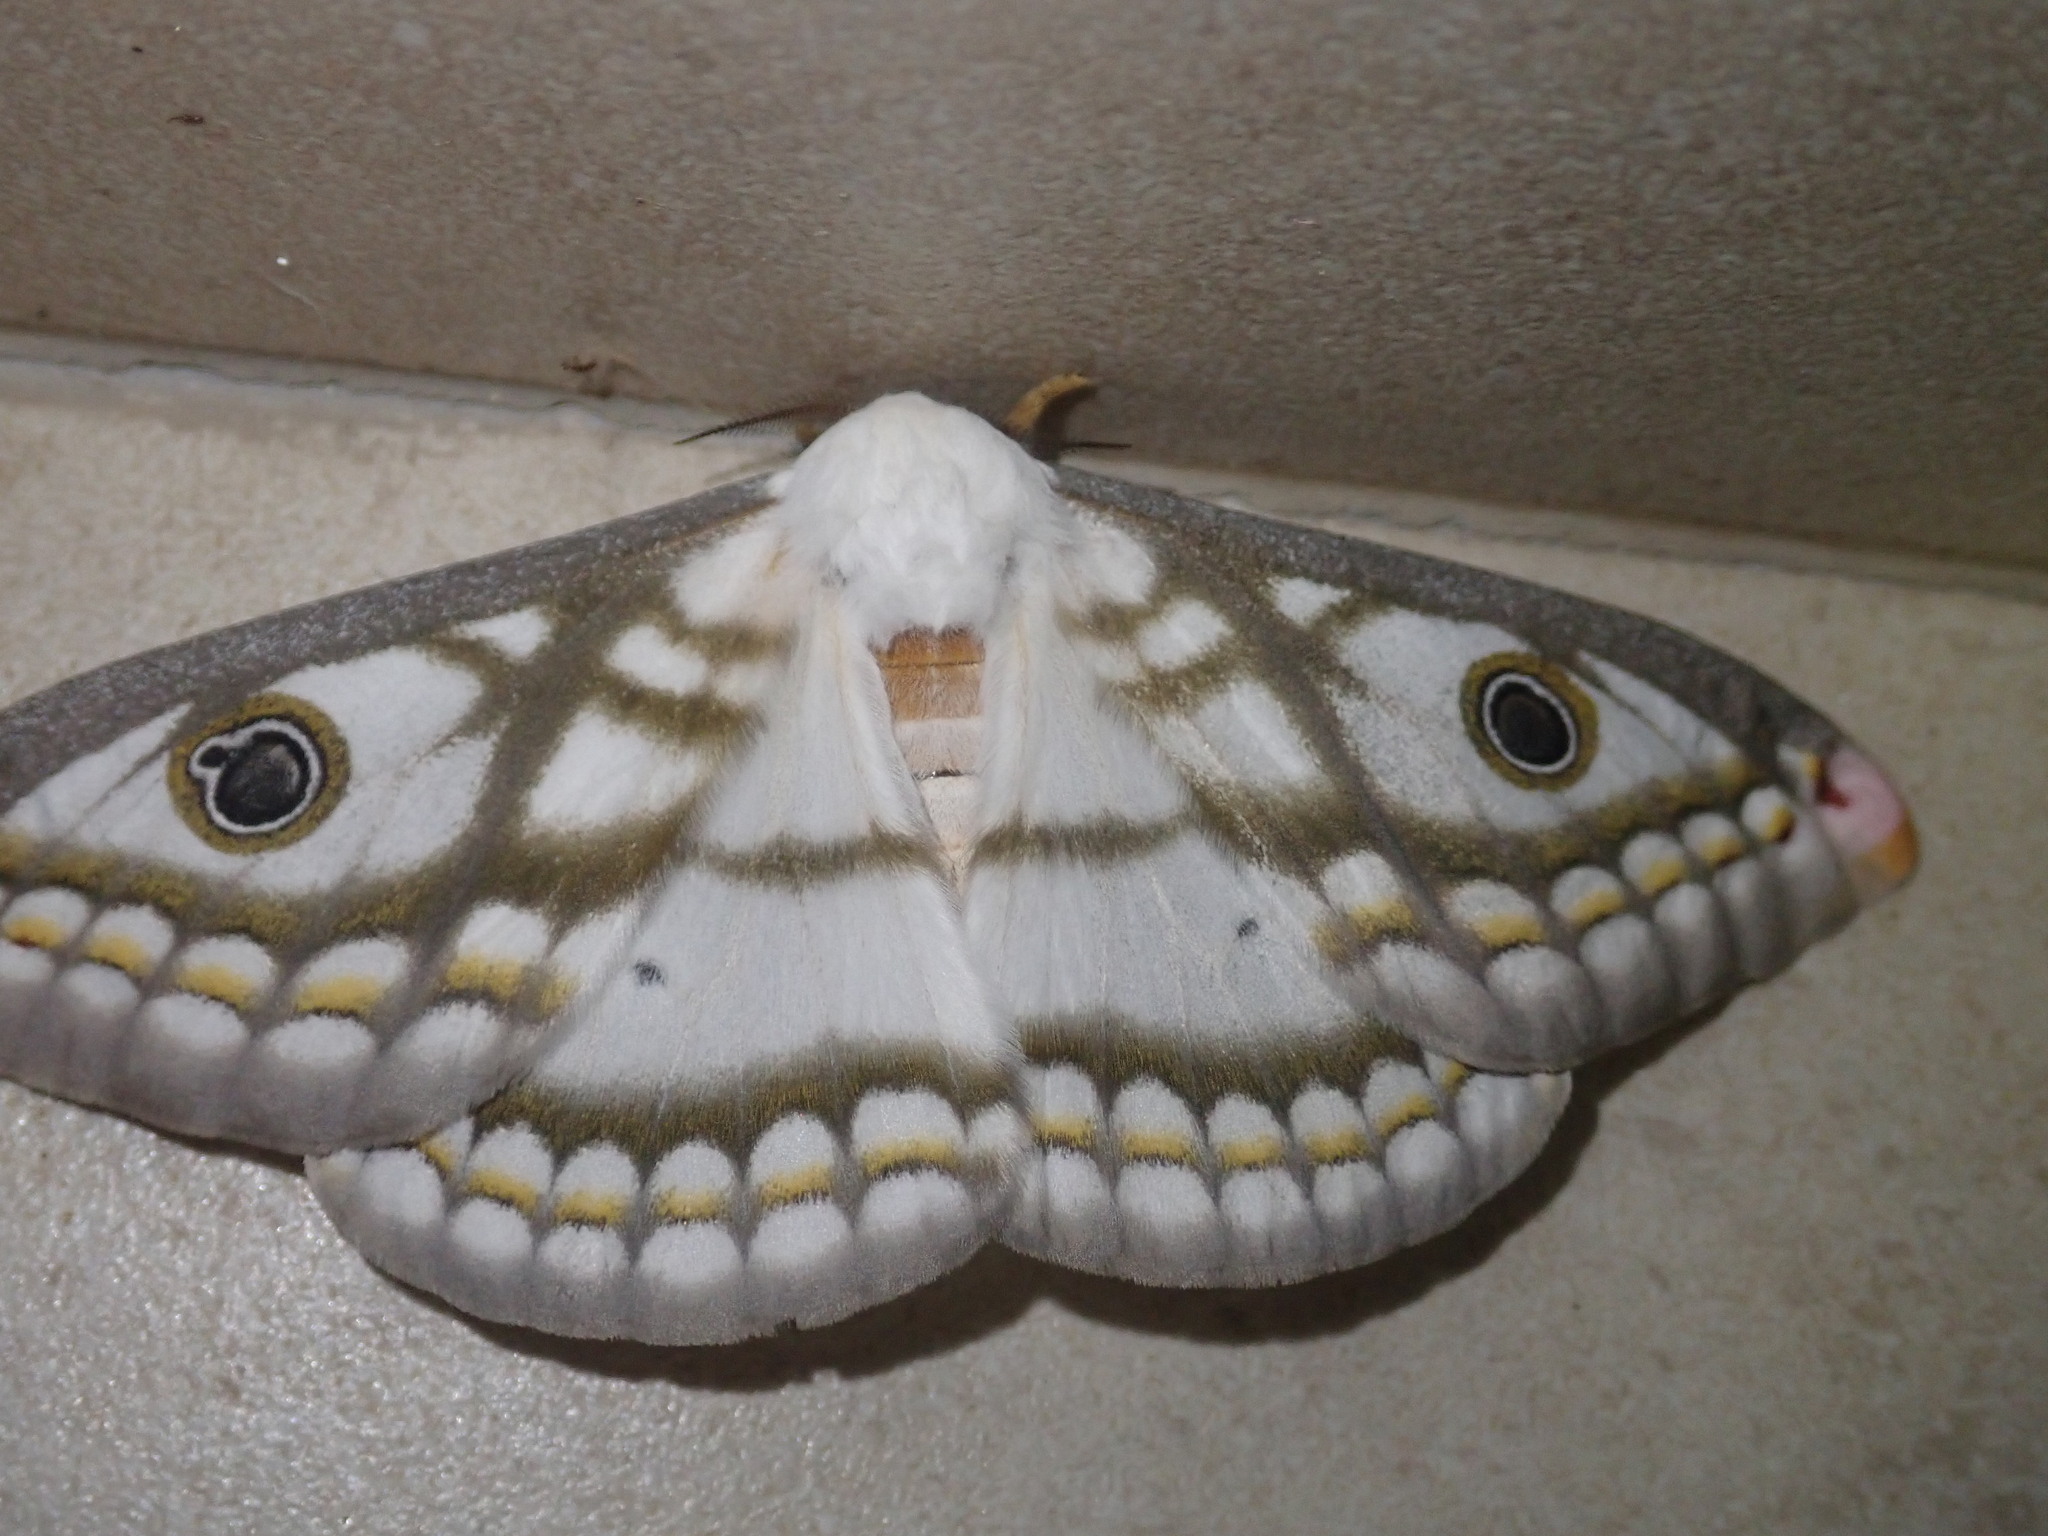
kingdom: Animalia
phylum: Arthropoda
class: Insecta
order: Lepidoptera
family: Saturniidae
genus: Heniocha
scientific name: Heniocha marnois
